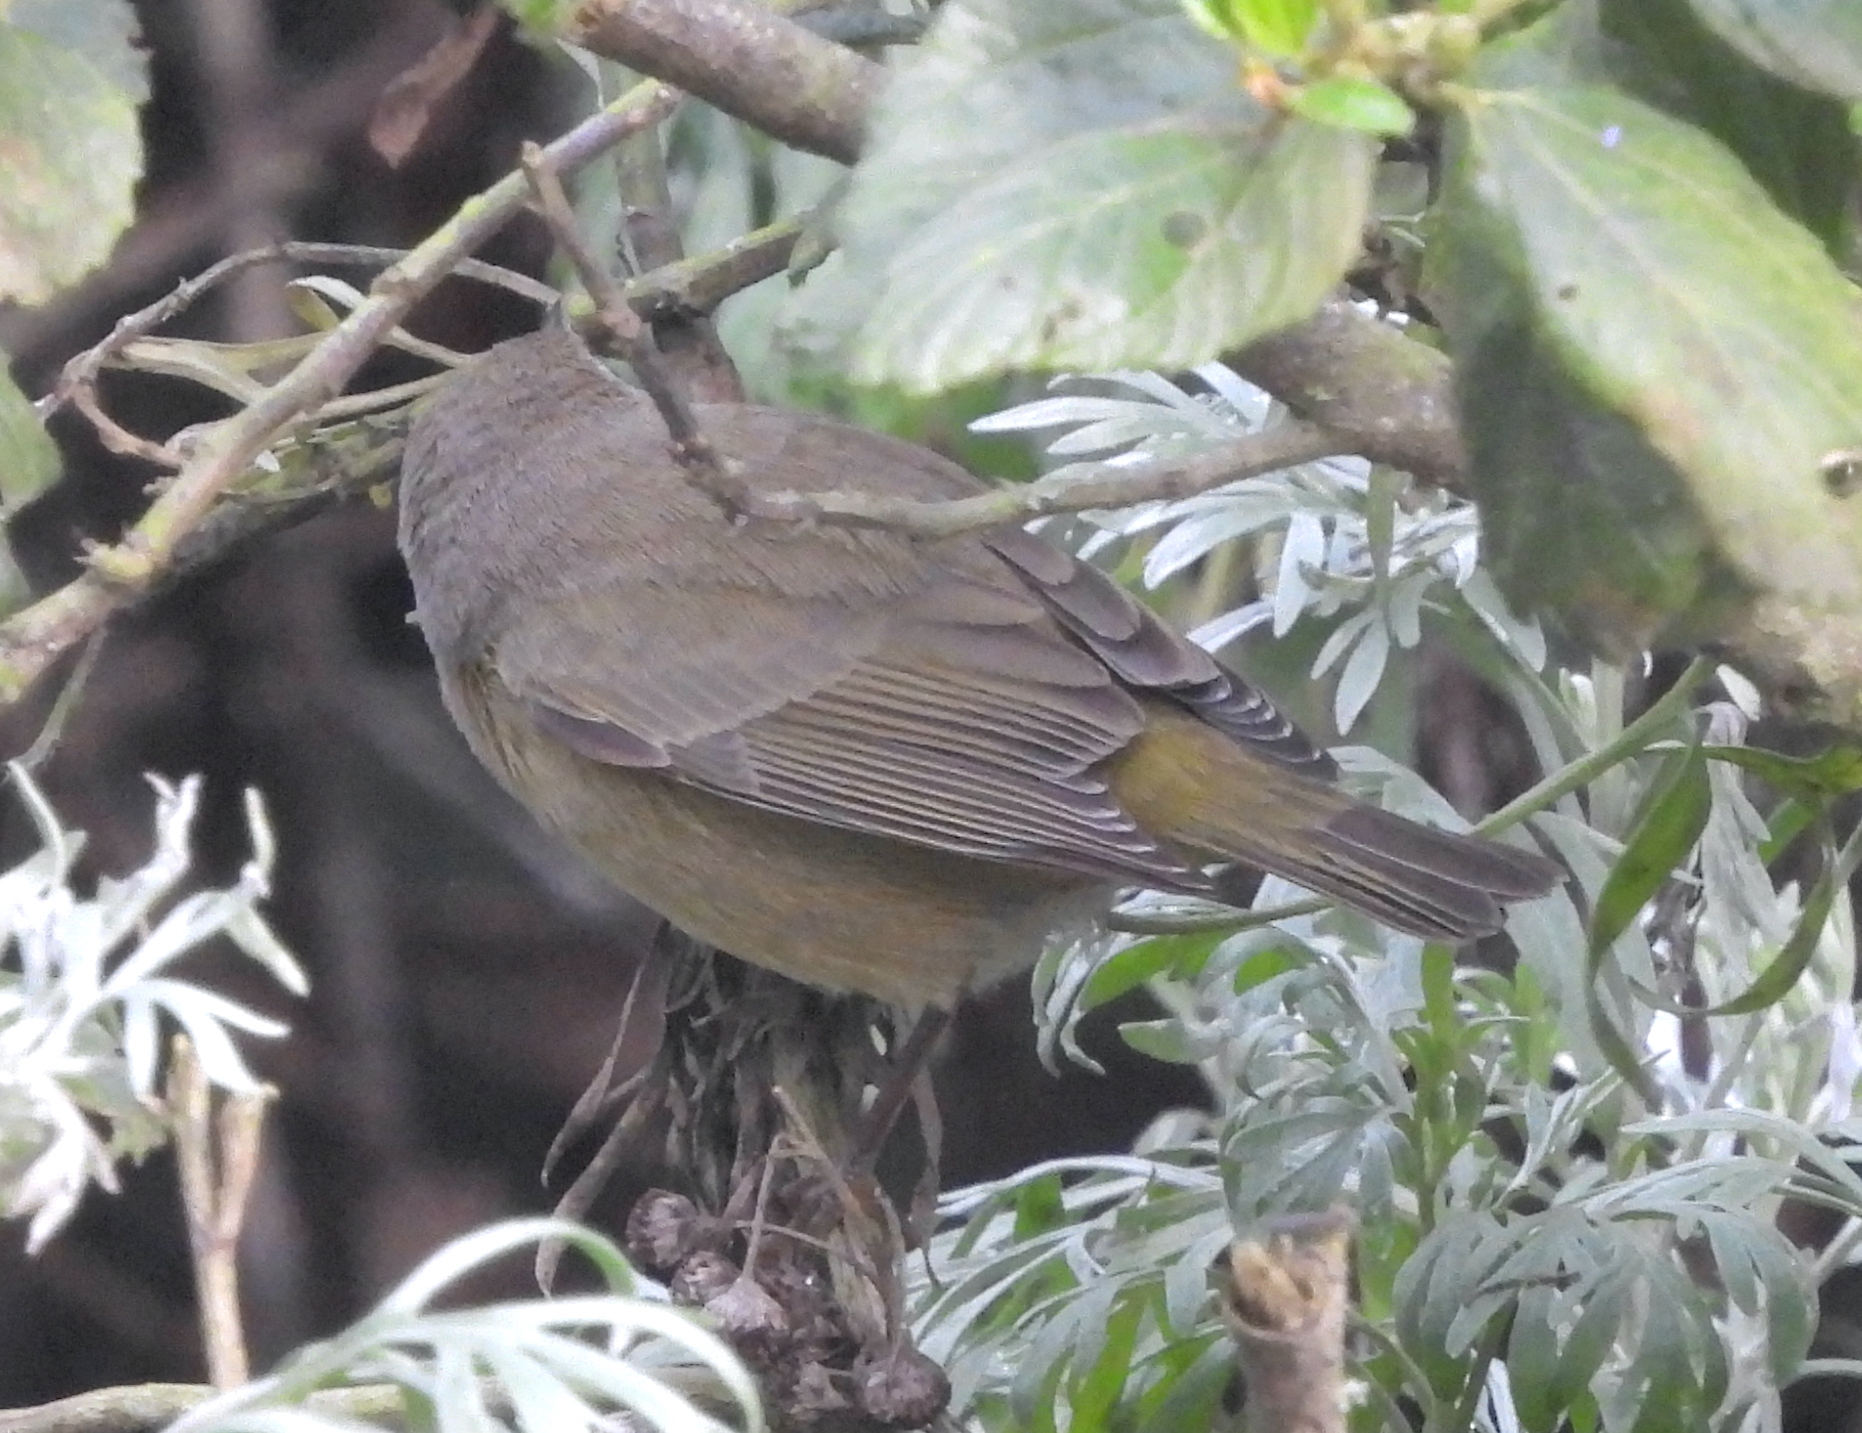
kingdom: Animalia
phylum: Chordata
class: Aves
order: Passeriformes
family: Parulidae
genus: Leiothlypis
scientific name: Leiothlypis celata
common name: Orange-crowned warbler
